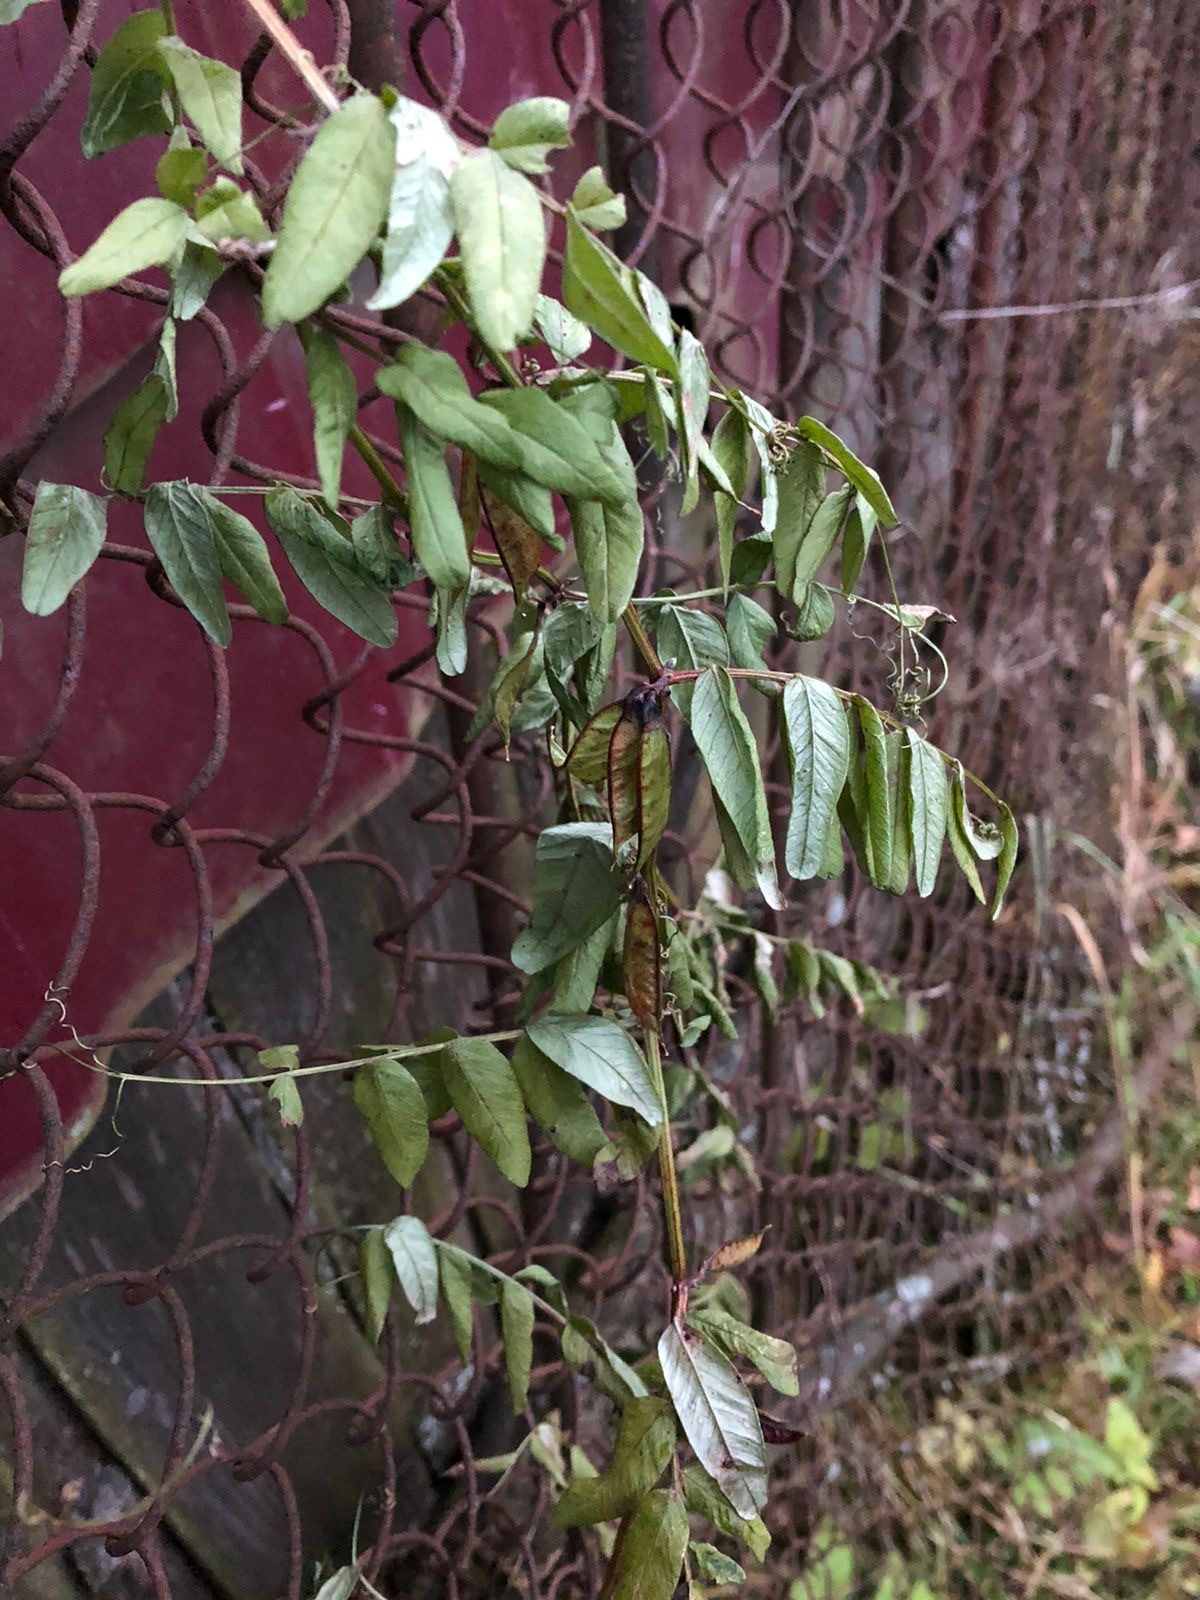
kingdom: Plantae
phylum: Tracheophyta
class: Magnoliopsida
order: Fabales
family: Fabaceae
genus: Vicia
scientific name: Vicia sepium
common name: Bush vetch
